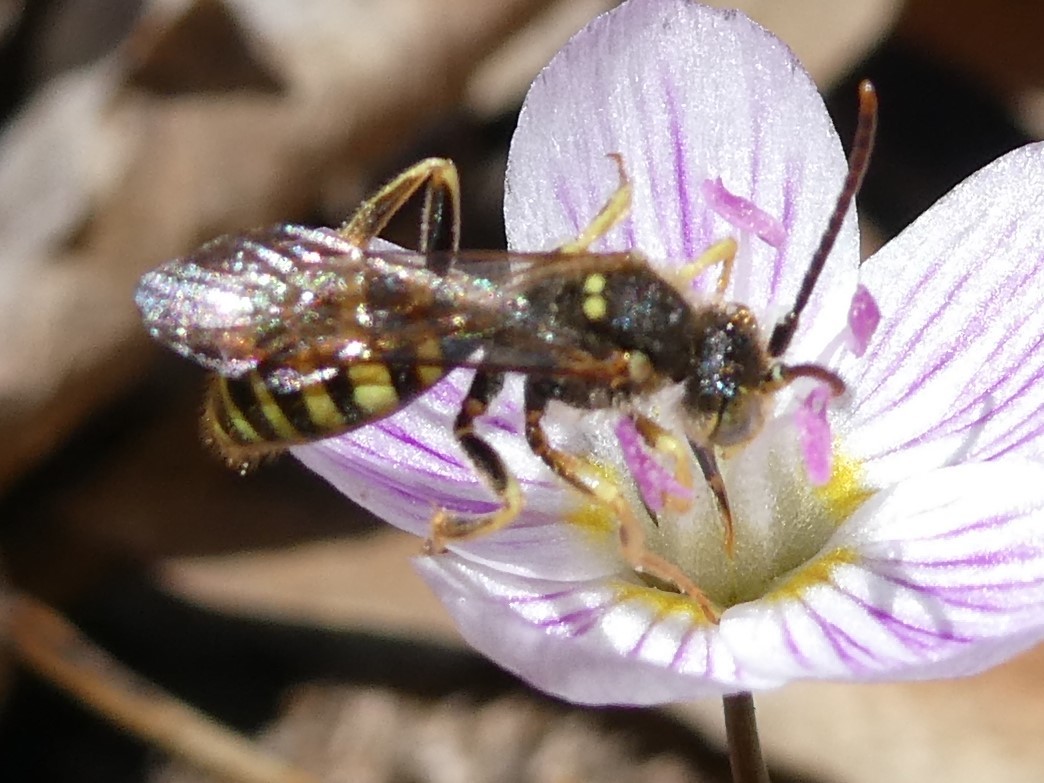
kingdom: Animalia
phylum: Arthropoda
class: Insecta
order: Hymenoptera
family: Apidae
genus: Nomada
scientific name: Nomada
